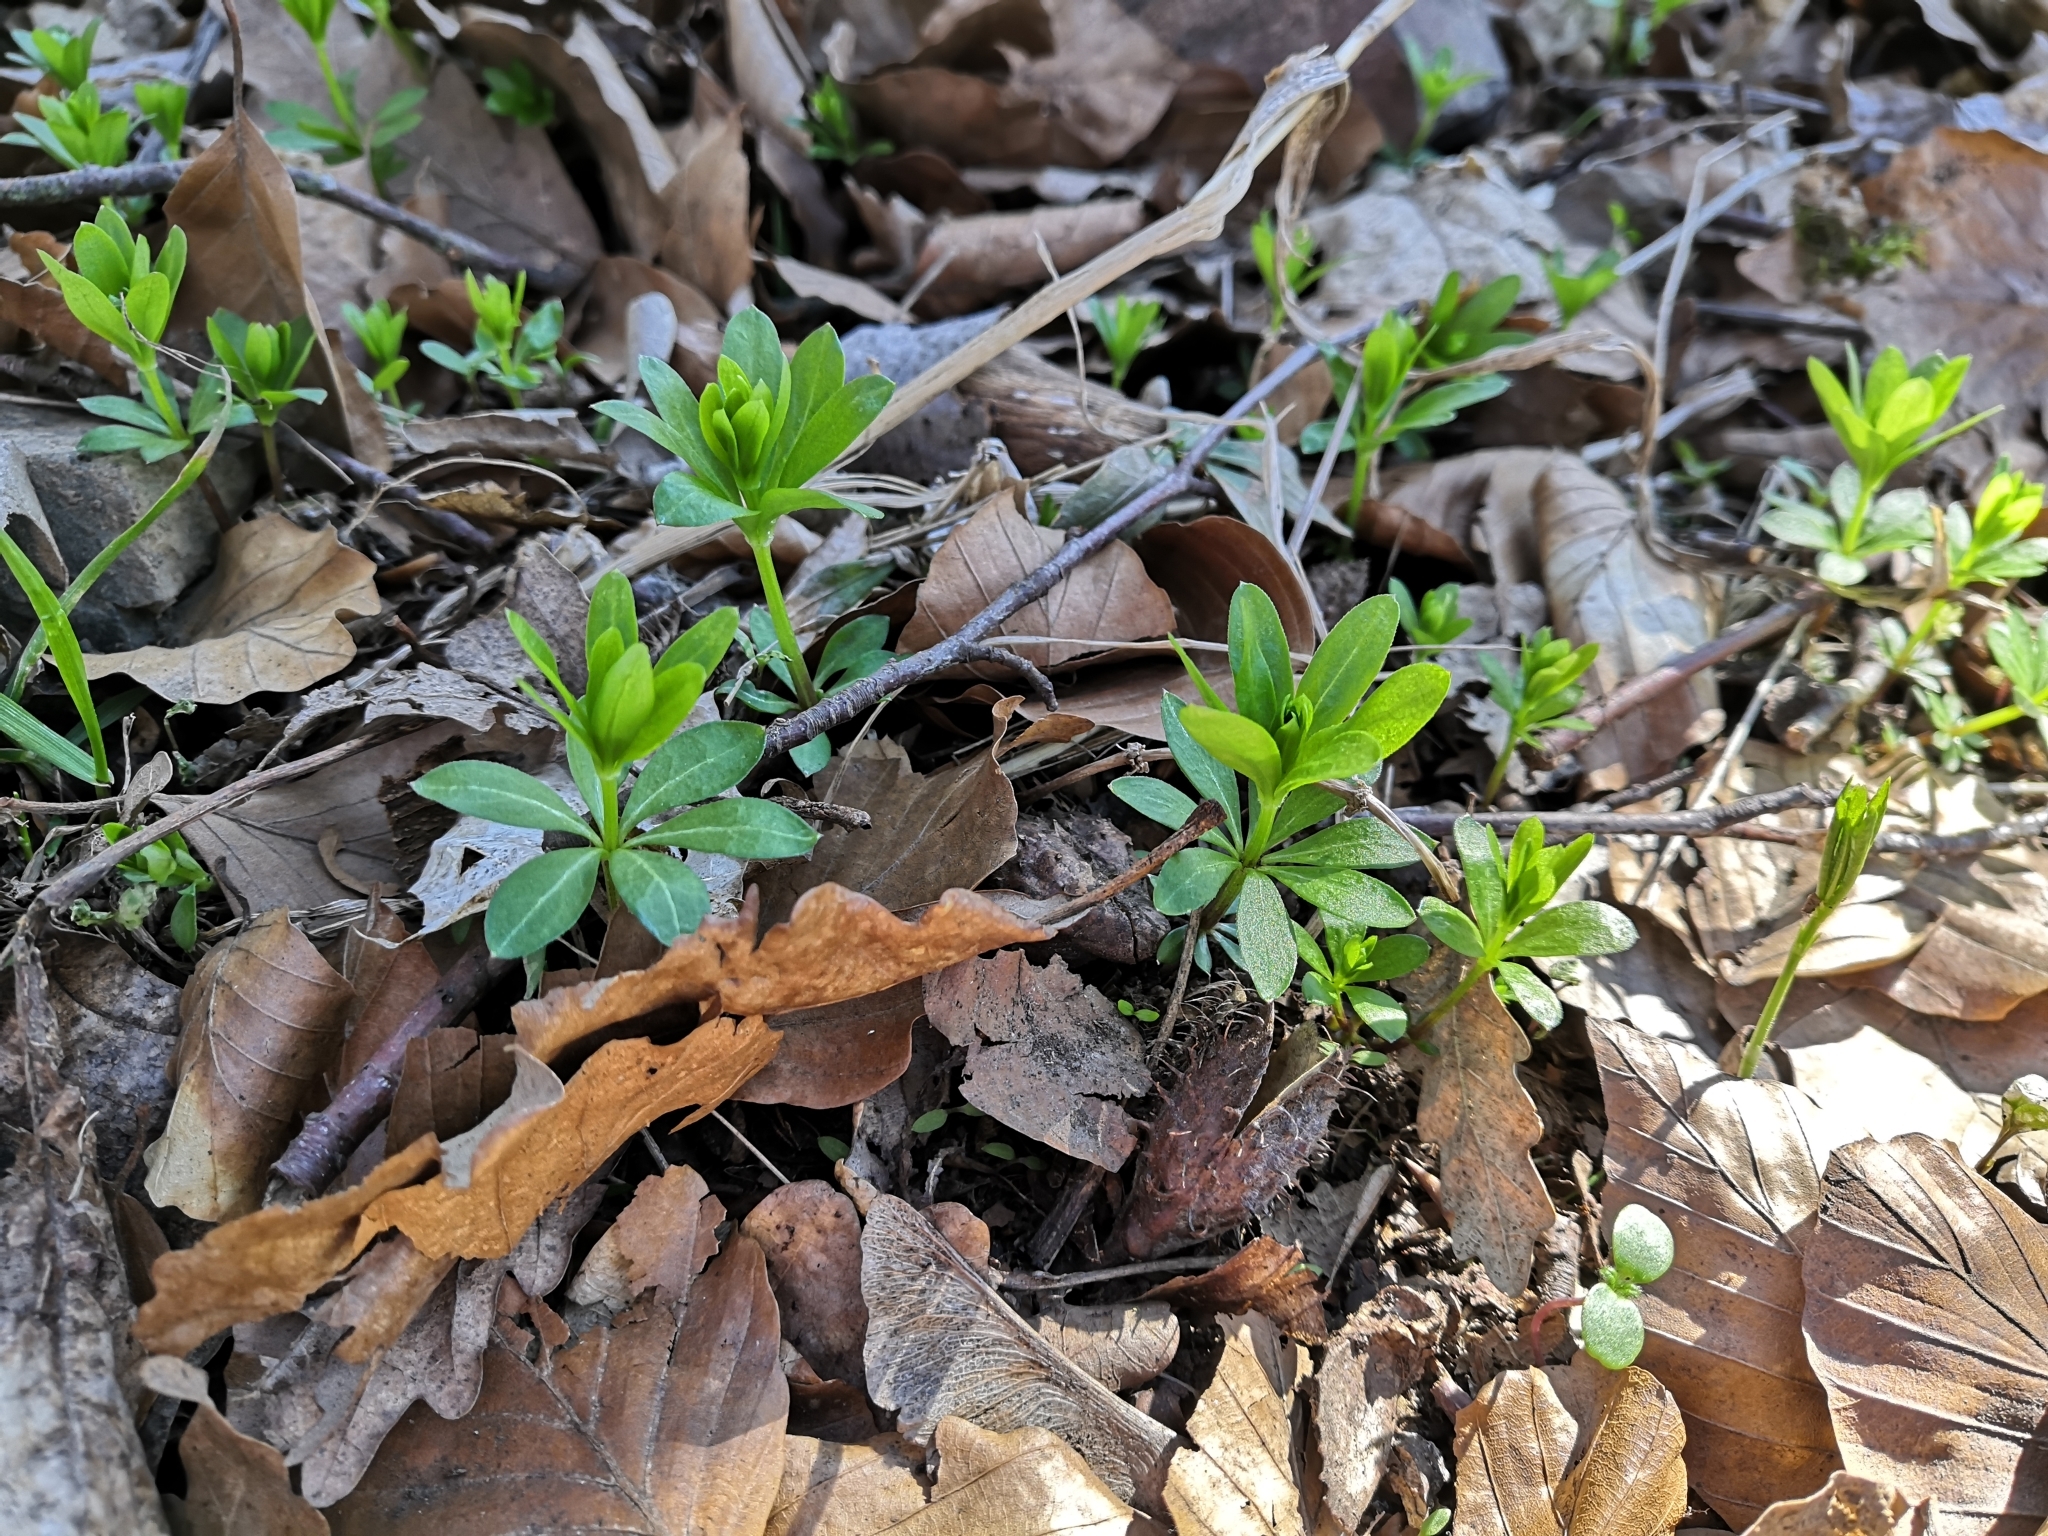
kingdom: Plantae
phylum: Tracheophyta
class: Magnoliopsida
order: Gentianales
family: Rubiaceae
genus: Galium
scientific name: Galium odoratum
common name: Sweet woodruff
